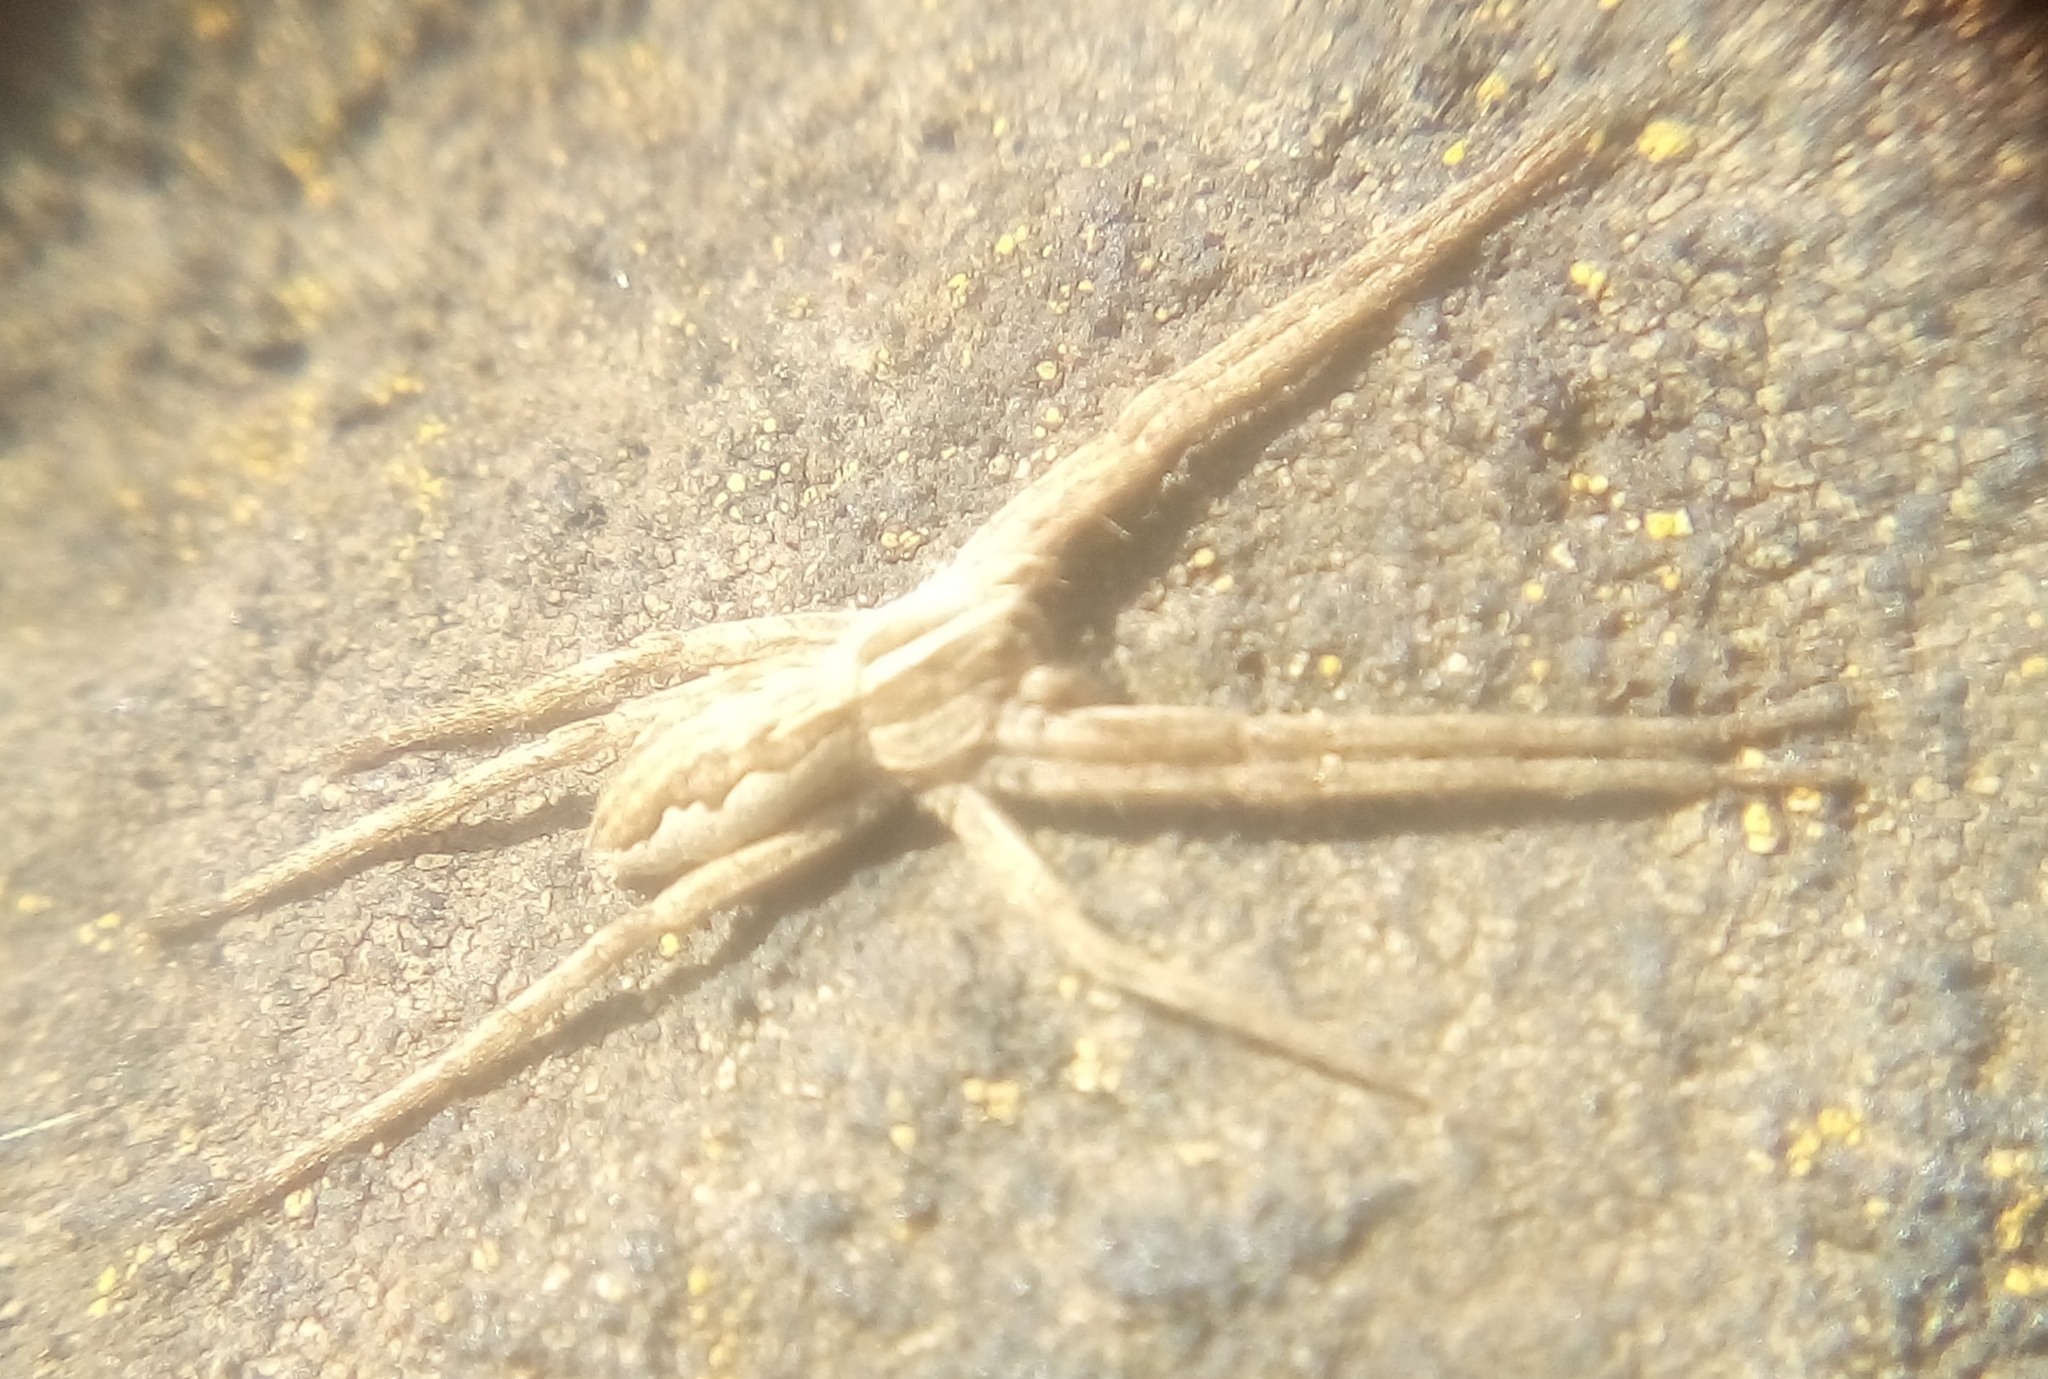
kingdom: Animalia
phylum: Arthropoda
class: Arachnida
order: Araneae
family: Pisauridae
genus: Pisaura
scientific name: Pisaura mirabilis
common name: Tent spider
